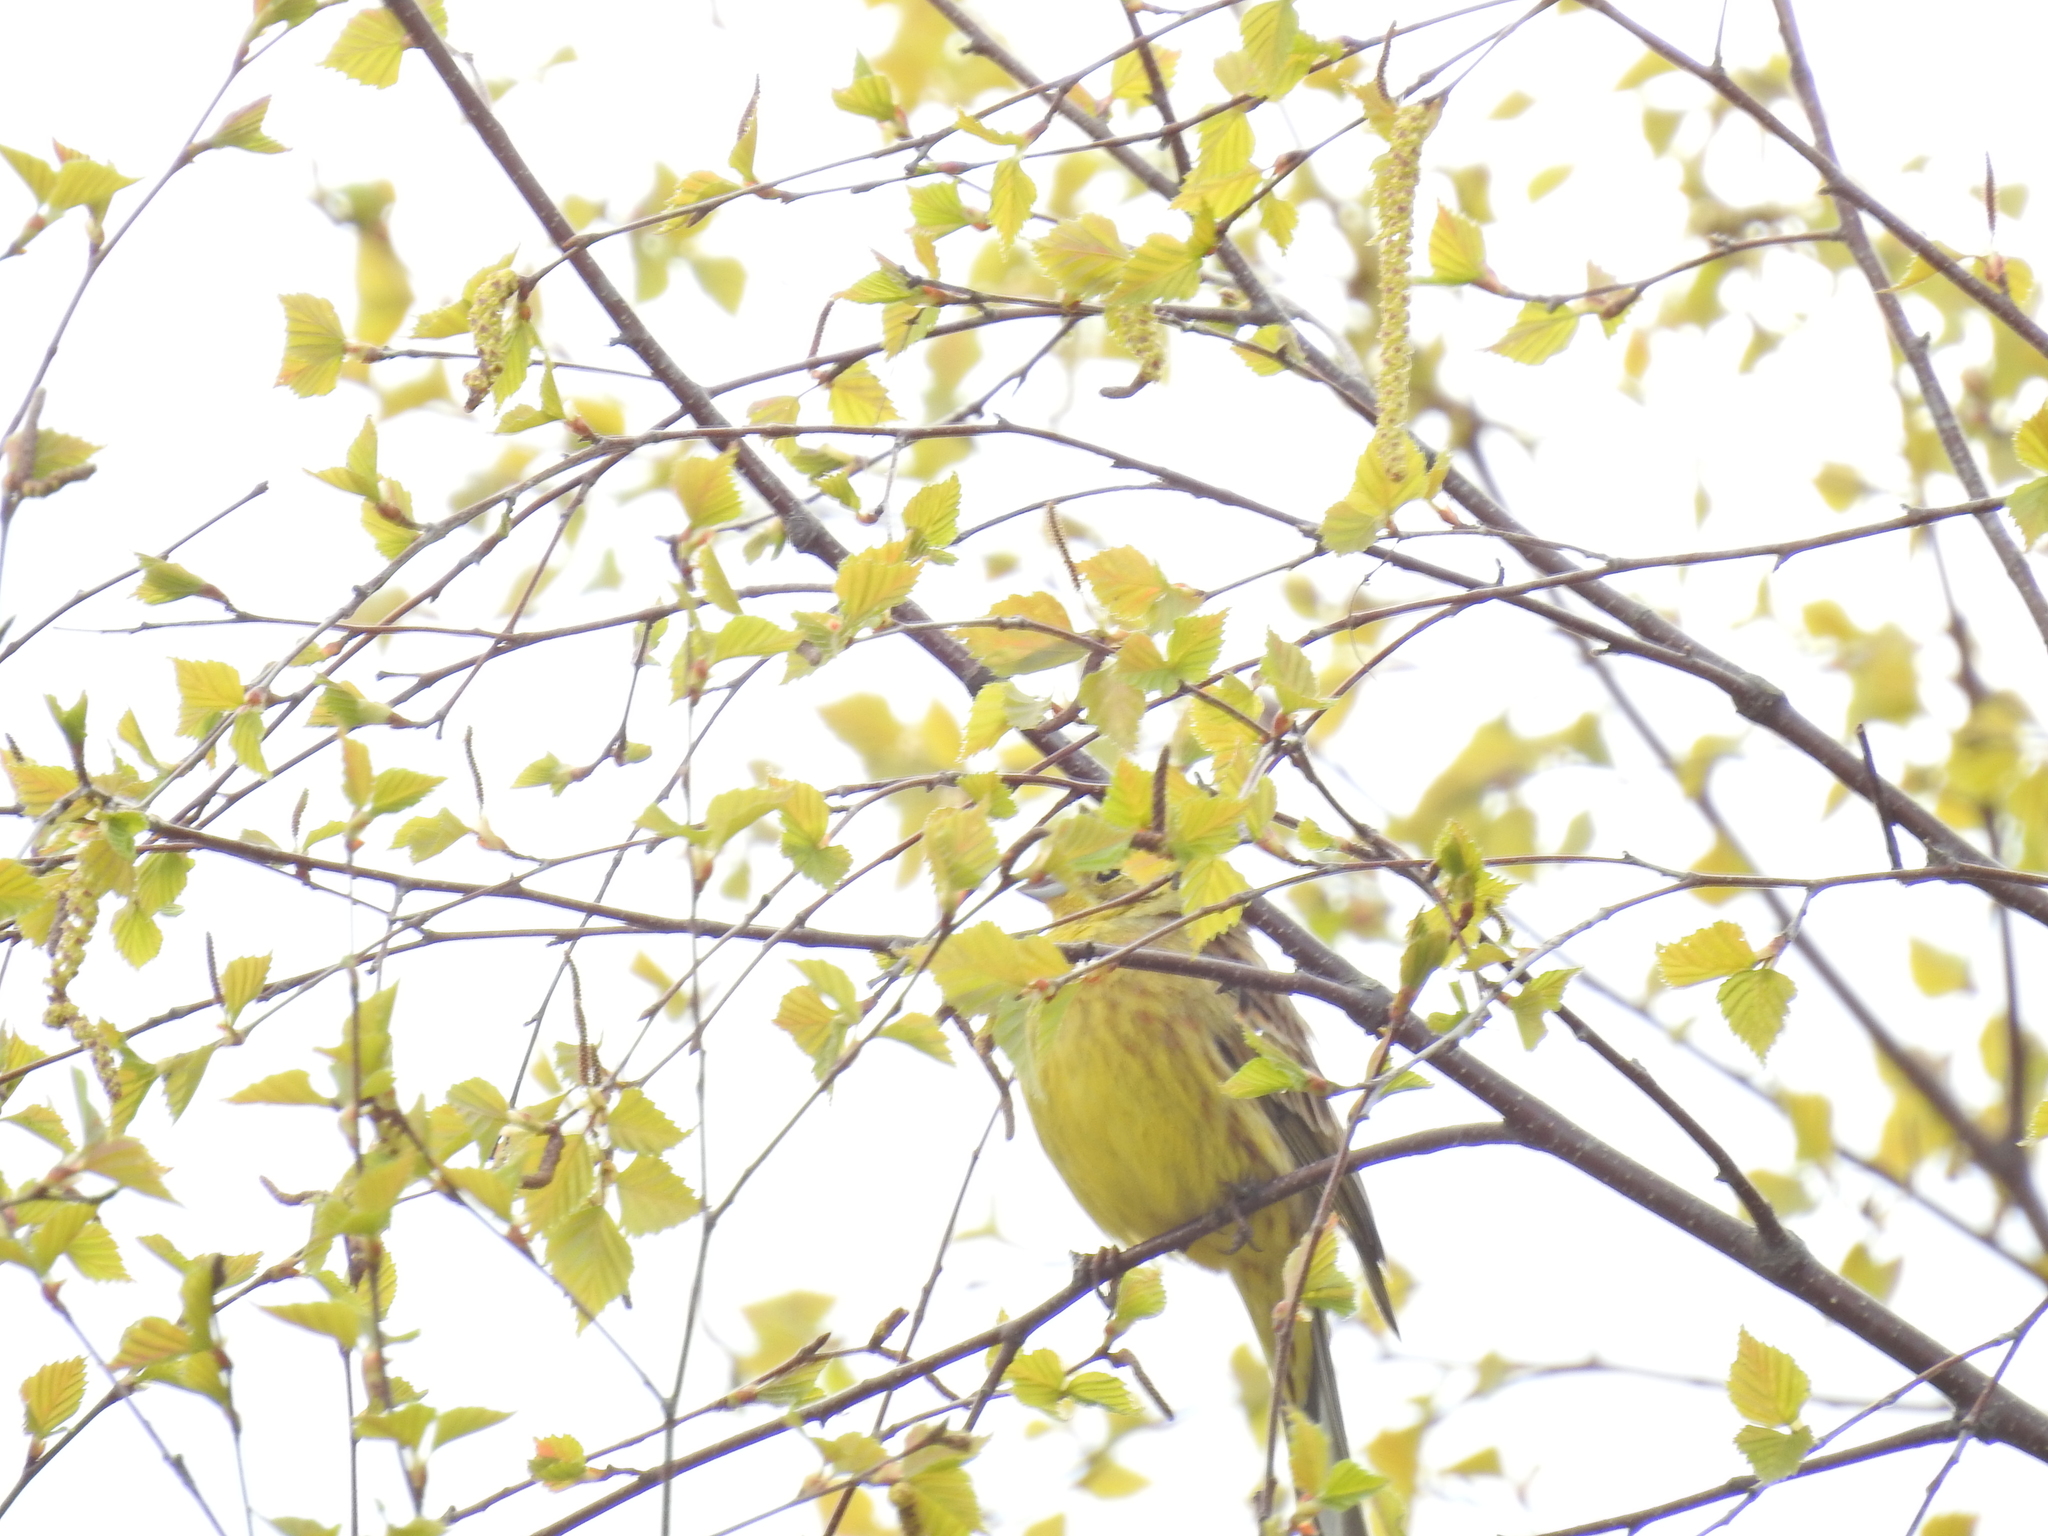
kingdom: Animalia
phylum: Chordata
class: Aves
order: Passeriformes
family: Emberizidae
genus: Emberiza
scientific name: Emberiza citrinella
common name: Yellowhammer
